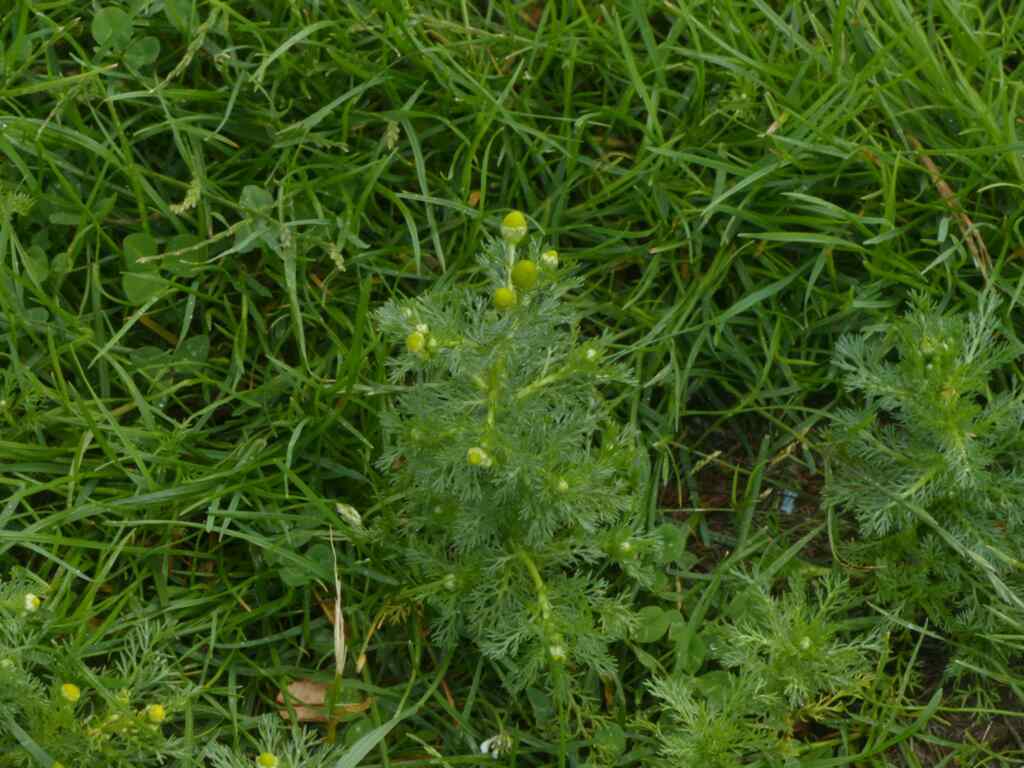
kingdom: Plantae
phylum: Tracheophyta
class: Magnoliopsida
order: Asterales
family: Asteraceae
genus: Matricaria
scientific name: Matricaria discoidea
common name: Disc mayweed
